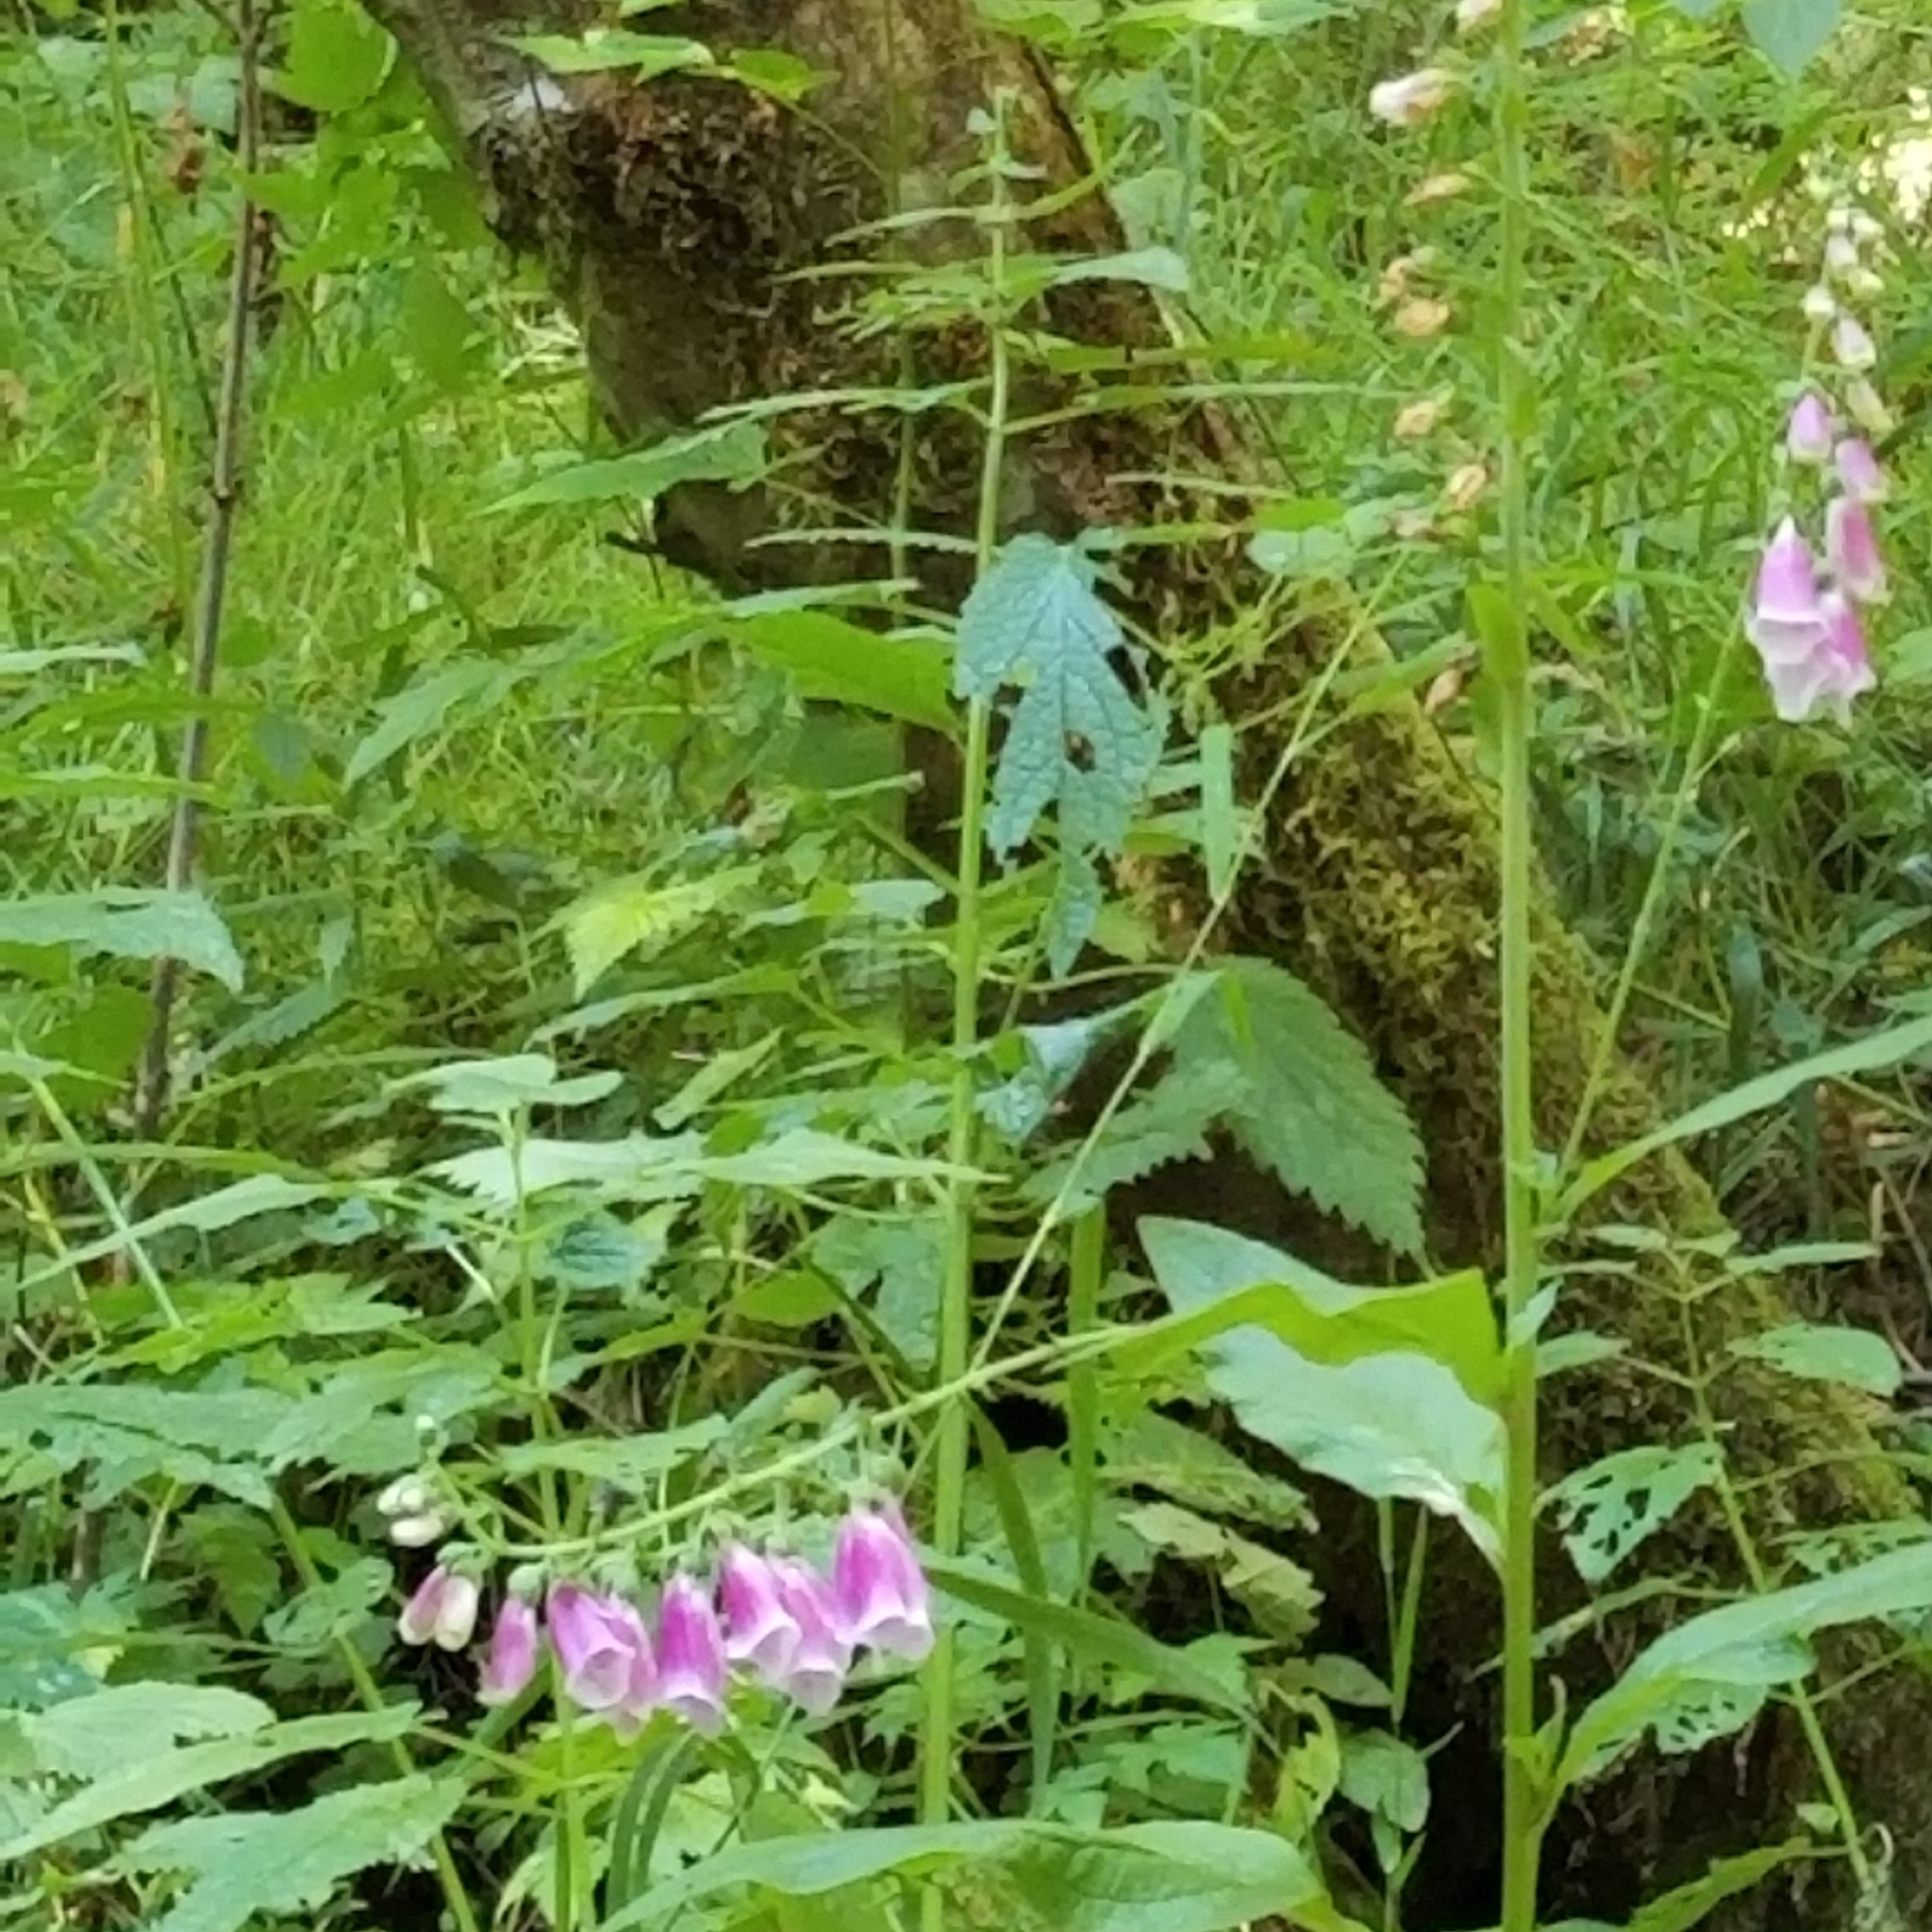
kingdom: Plantae
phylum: Tracheophyta
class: Magnoliopsida
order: Lamiales
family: Plantaginaceae
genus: Digitalis
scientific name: Digitalis purpurea
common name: Foxglove
